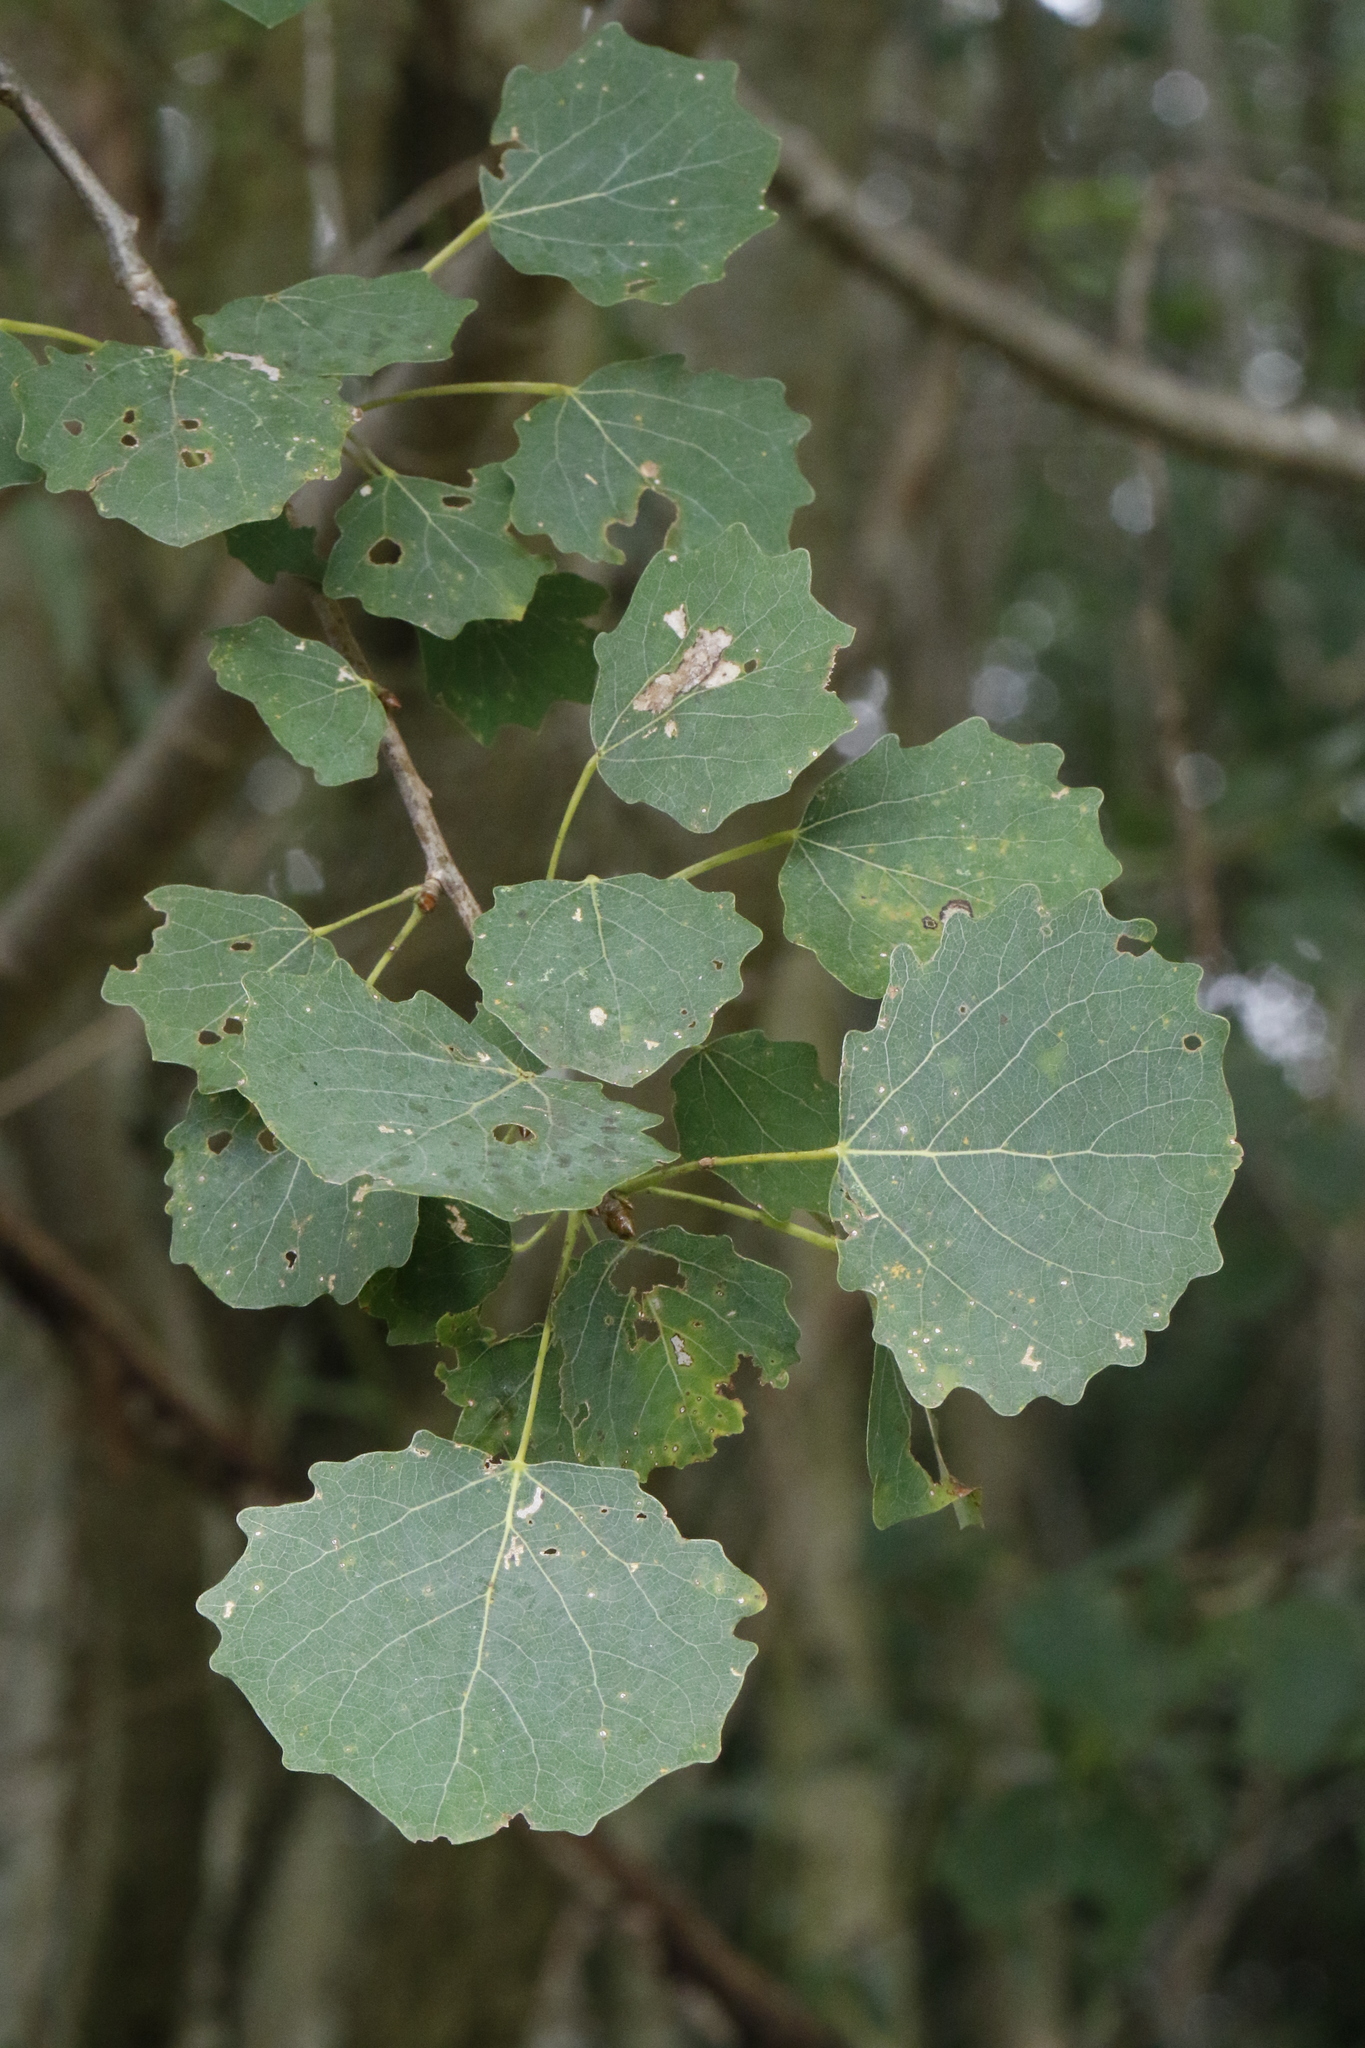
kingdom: Plantae
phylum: Tracheophyta
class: Magnoliopsida
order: Malpighiales
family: Salicaceae
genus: Populus
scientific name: Populus tremula
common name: European aspen
